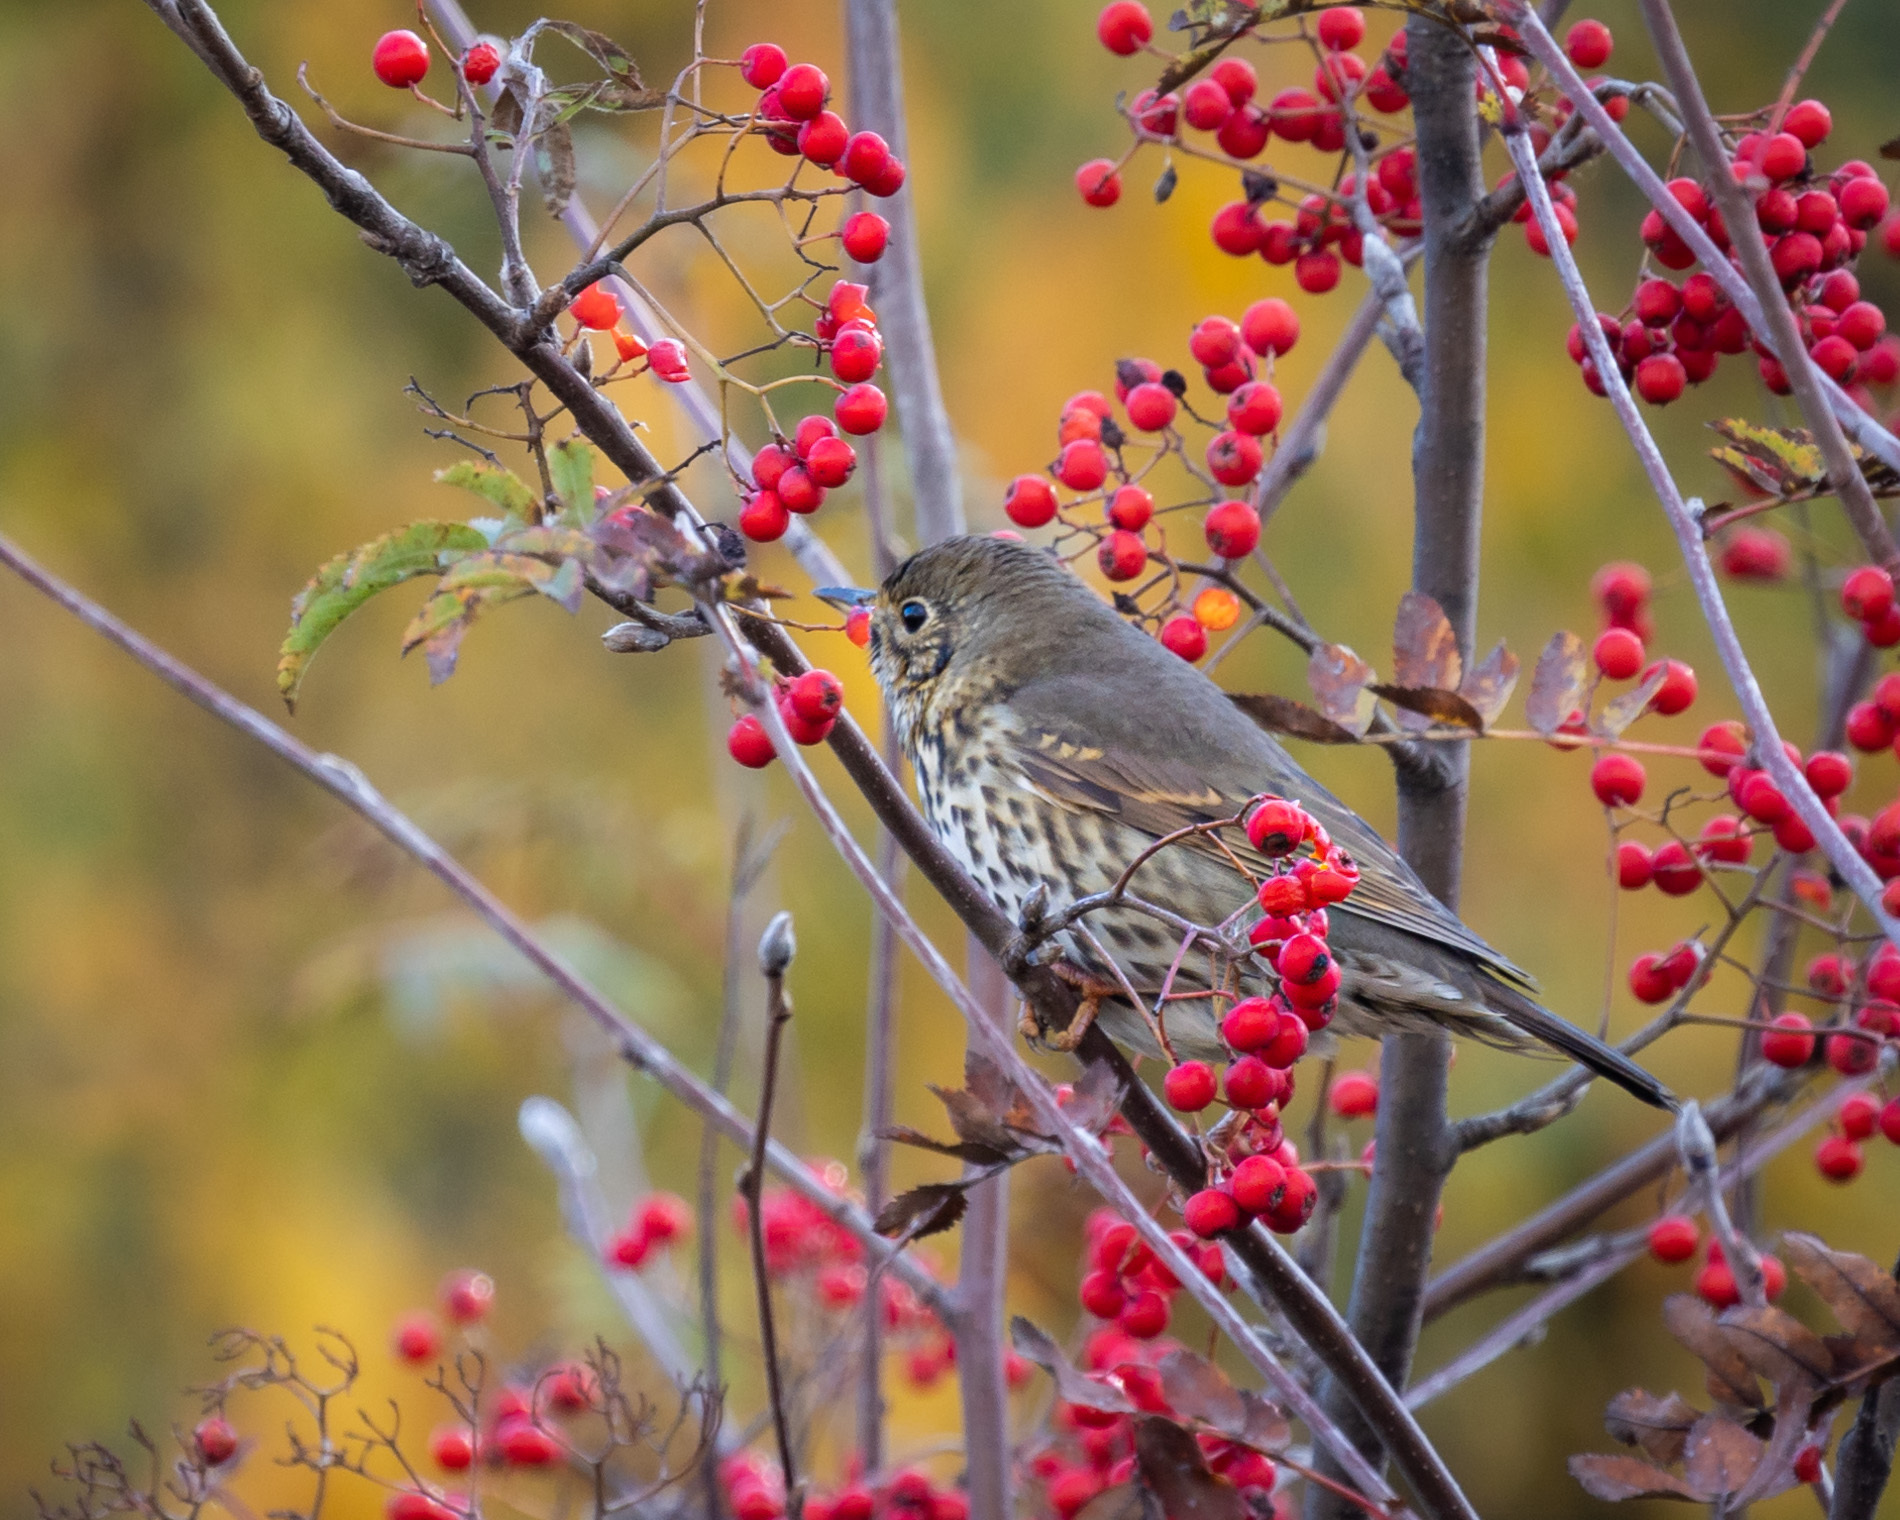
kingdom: Animalia
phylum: Chordata
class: Aves
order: Passeriformes
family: Turdidae
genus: Turdus
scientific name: Turdus philomelos
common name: Song thrush
